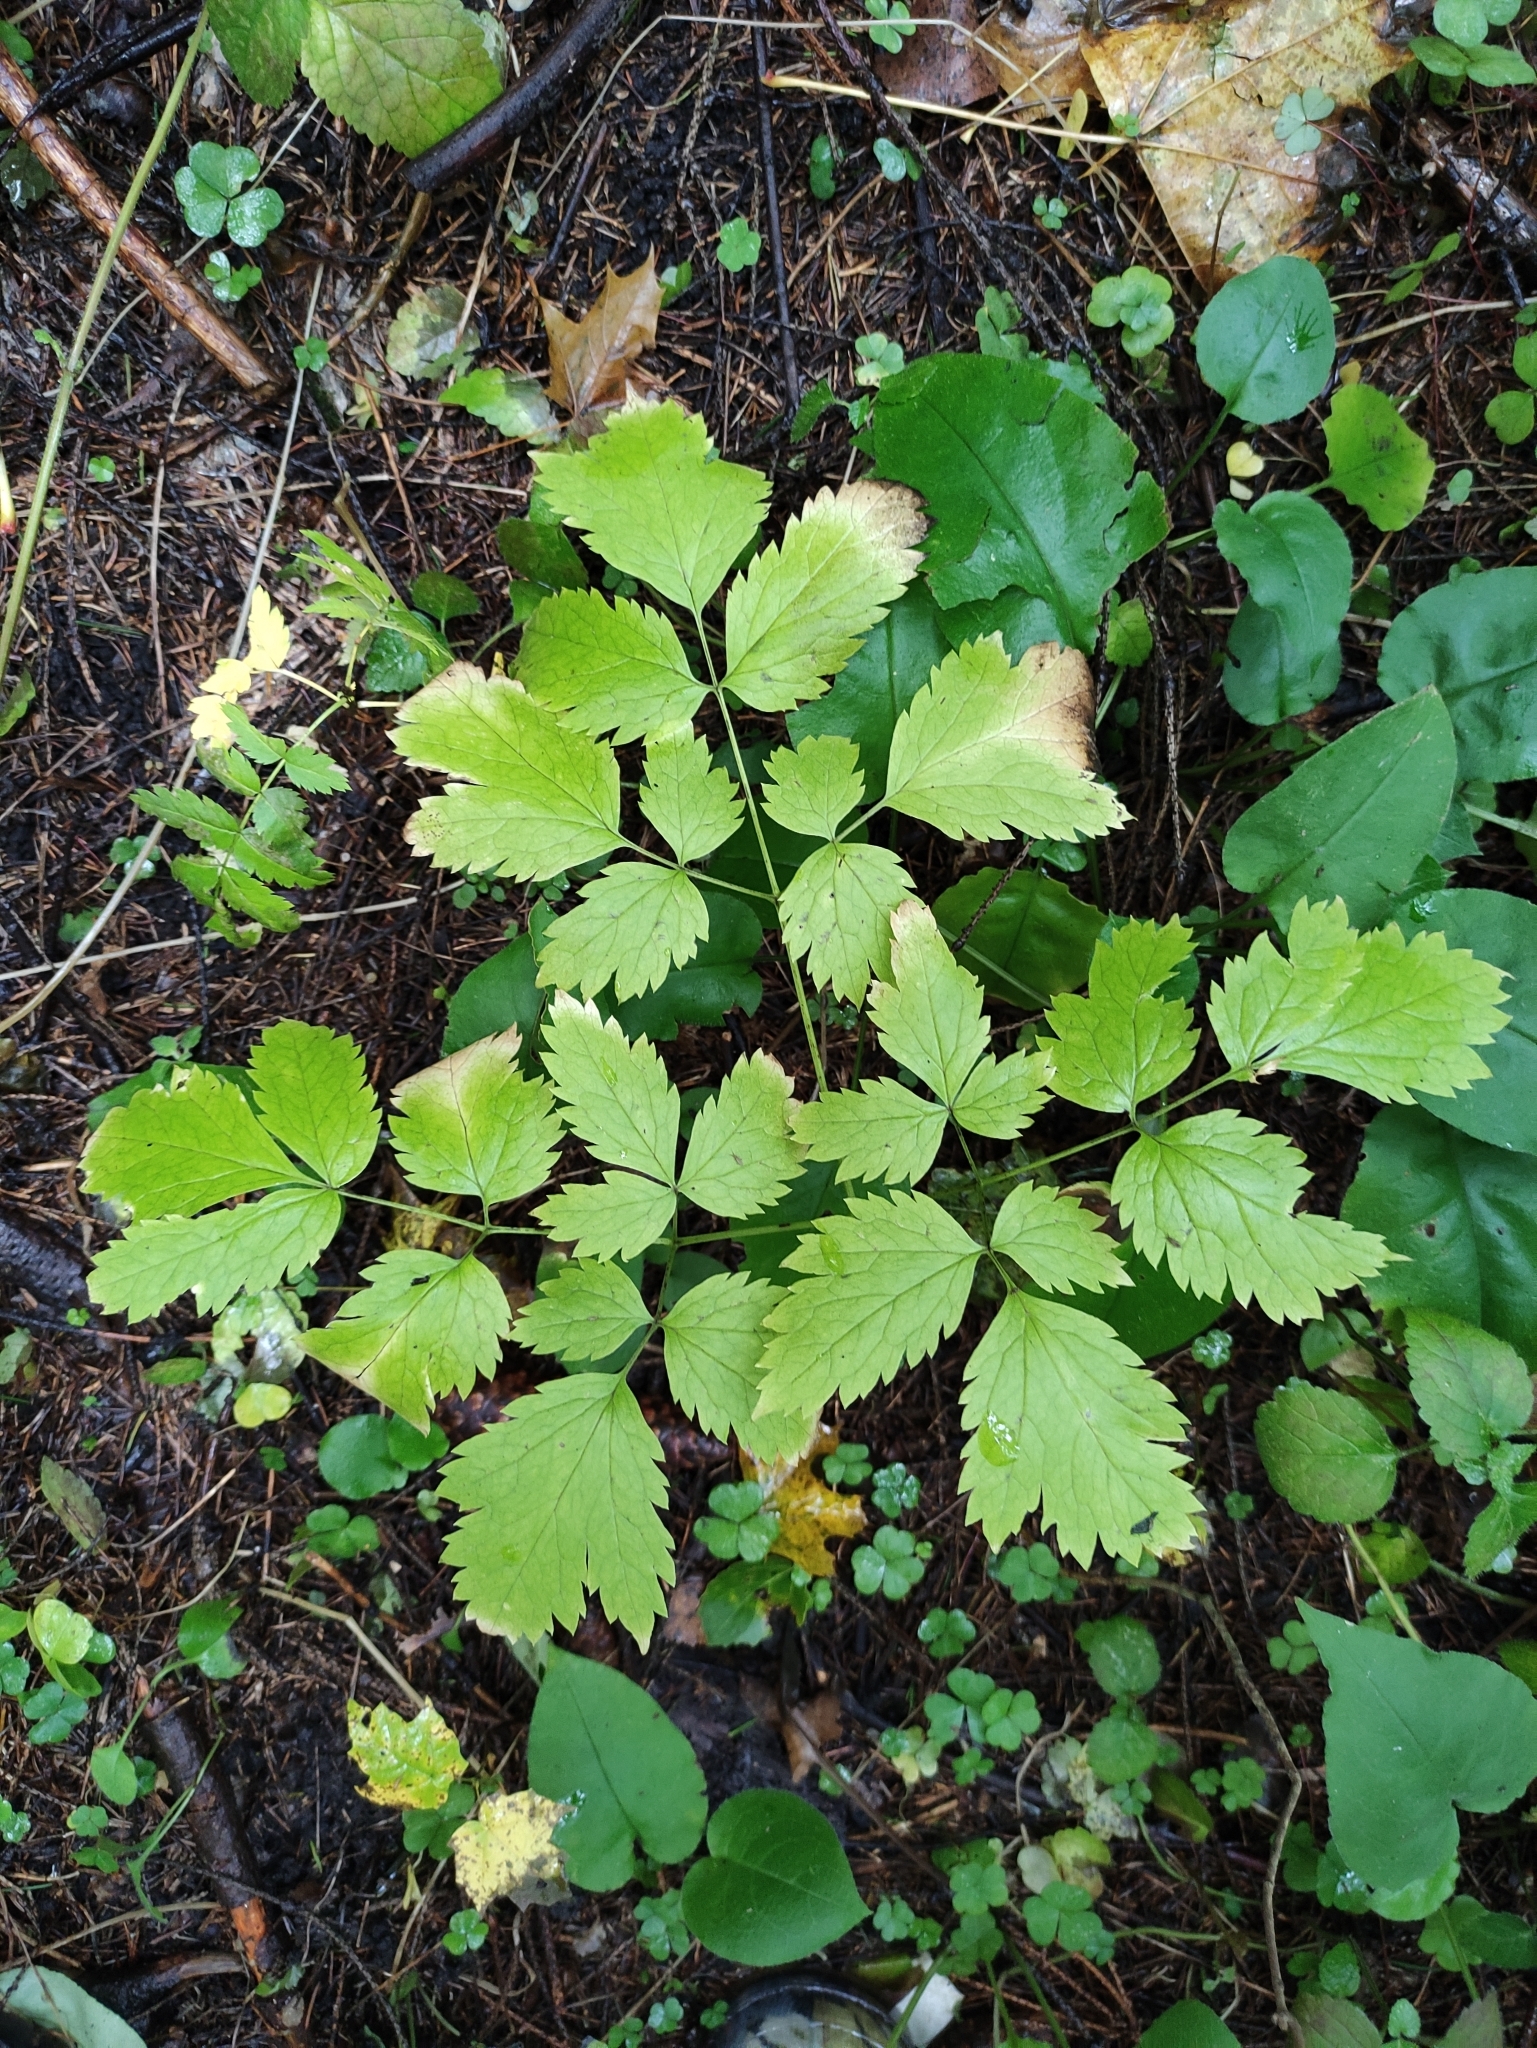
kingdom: Plantae
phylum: Tracheophyta
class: Magnoliopsida
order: Ranunculales
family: Ranunculaceae
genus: Actaea
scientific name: Actaea spicata
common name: Baneberry
